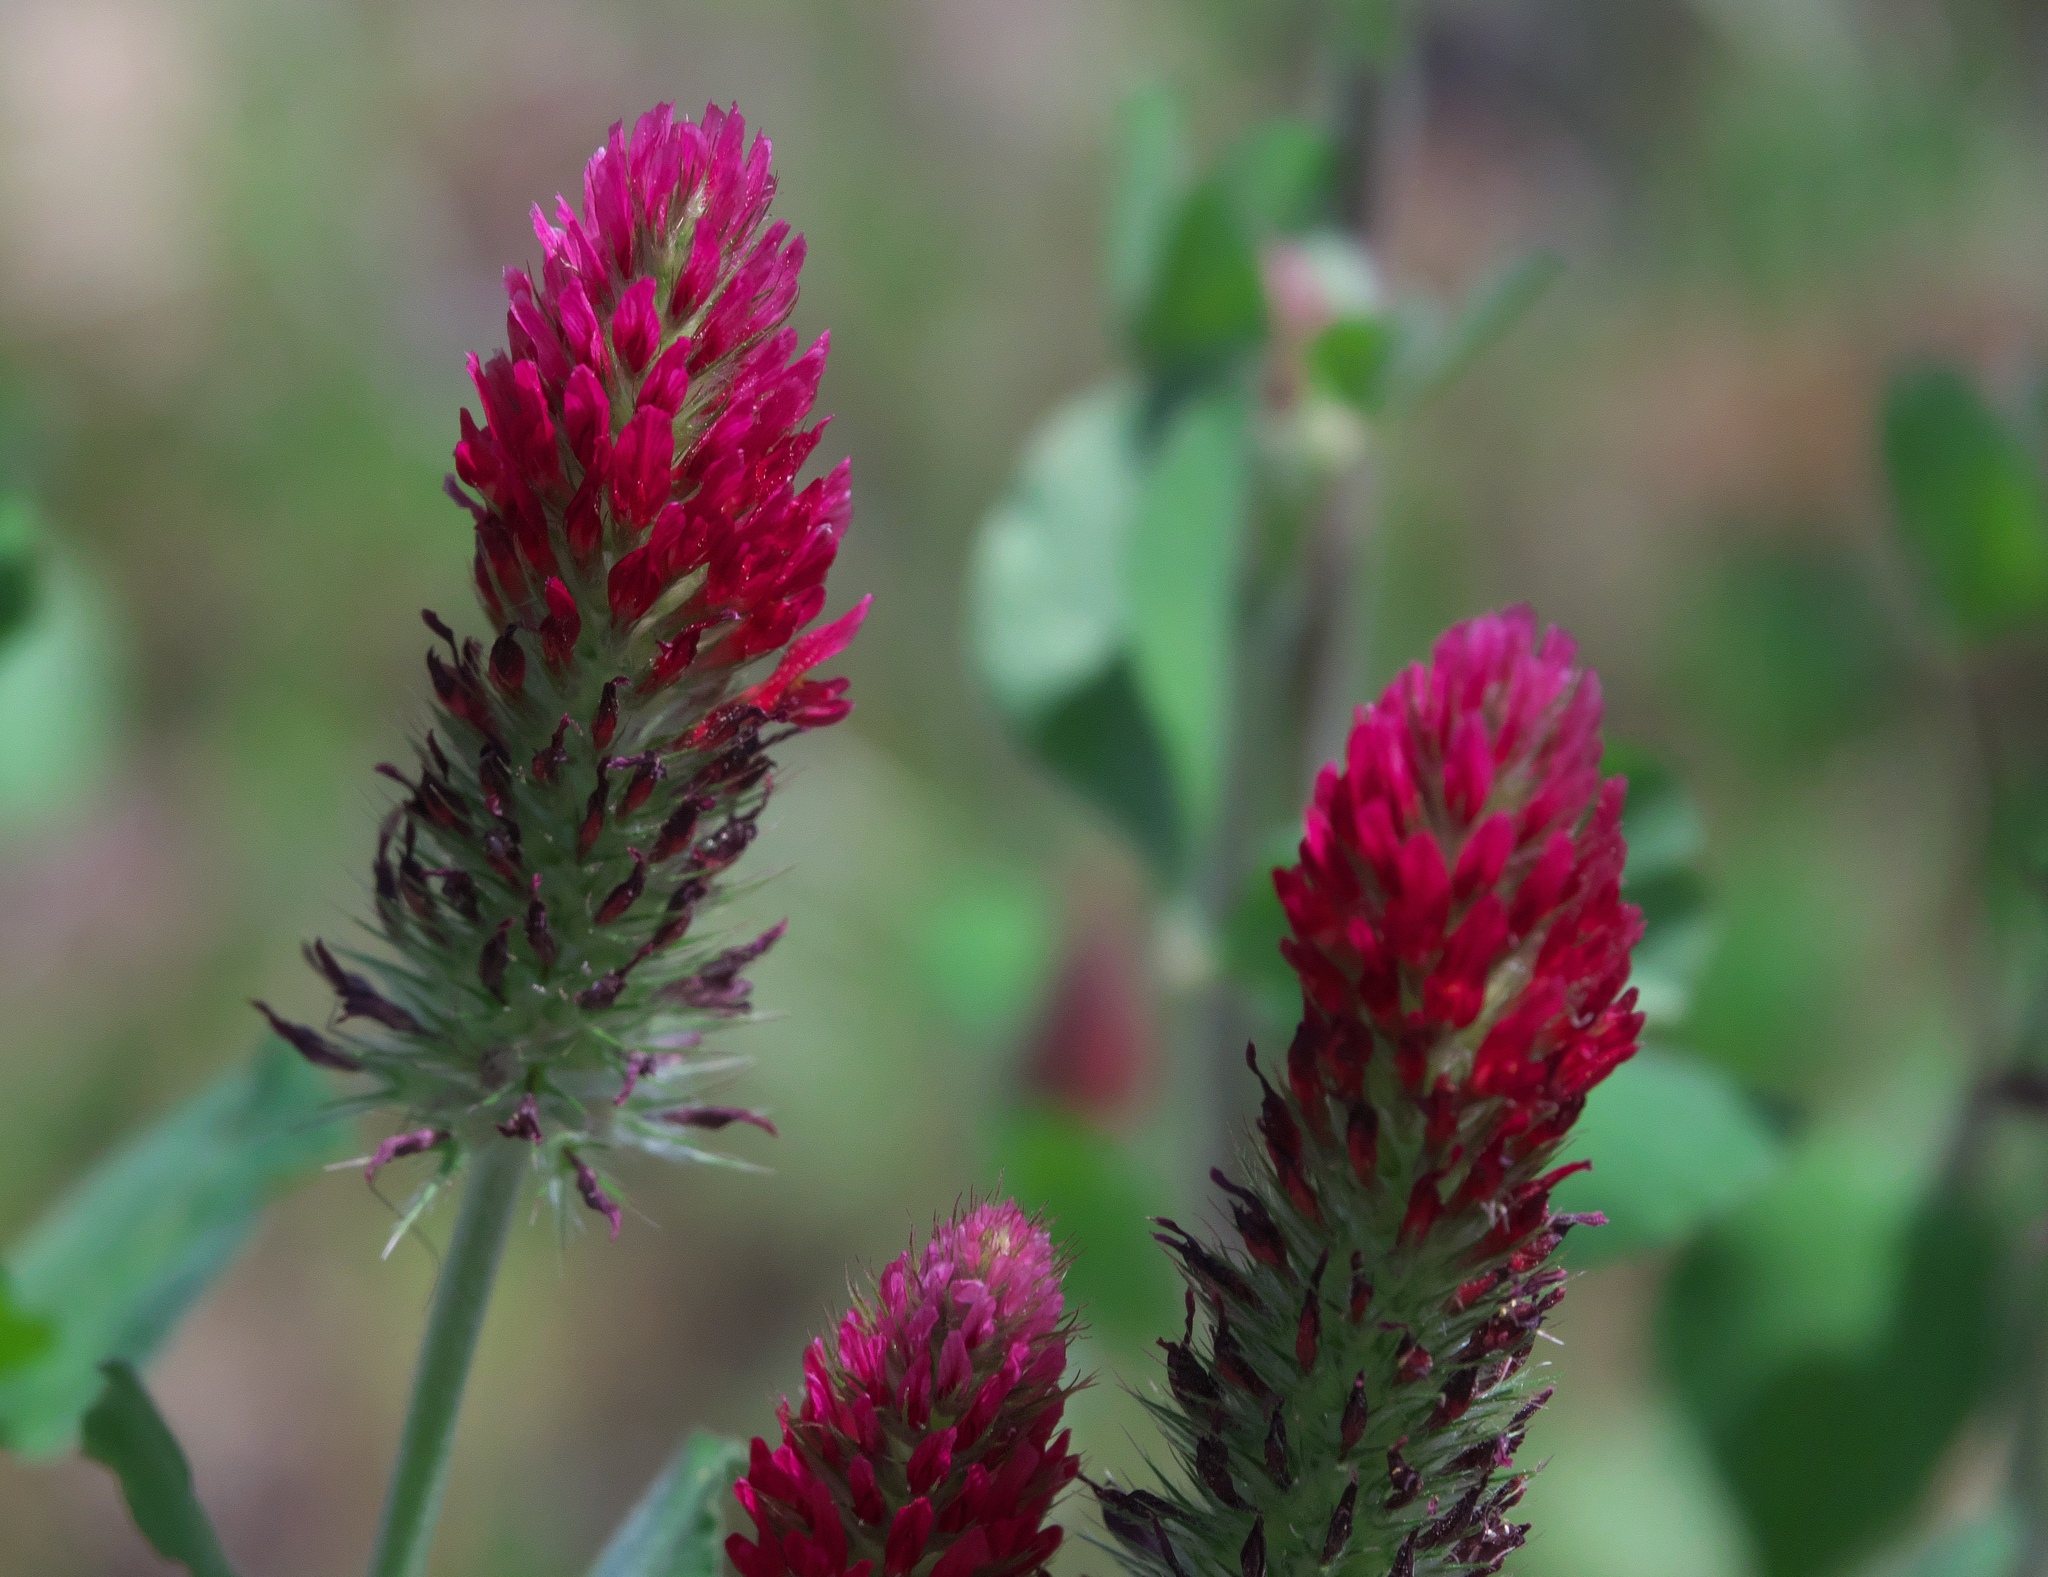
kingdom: Plantae
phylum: Tracheophyta
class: Magnoliopsida
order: Fabales
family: Fabaceae
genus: Trifolium
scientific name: Trifolium incarnatum
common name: Crimson clover
